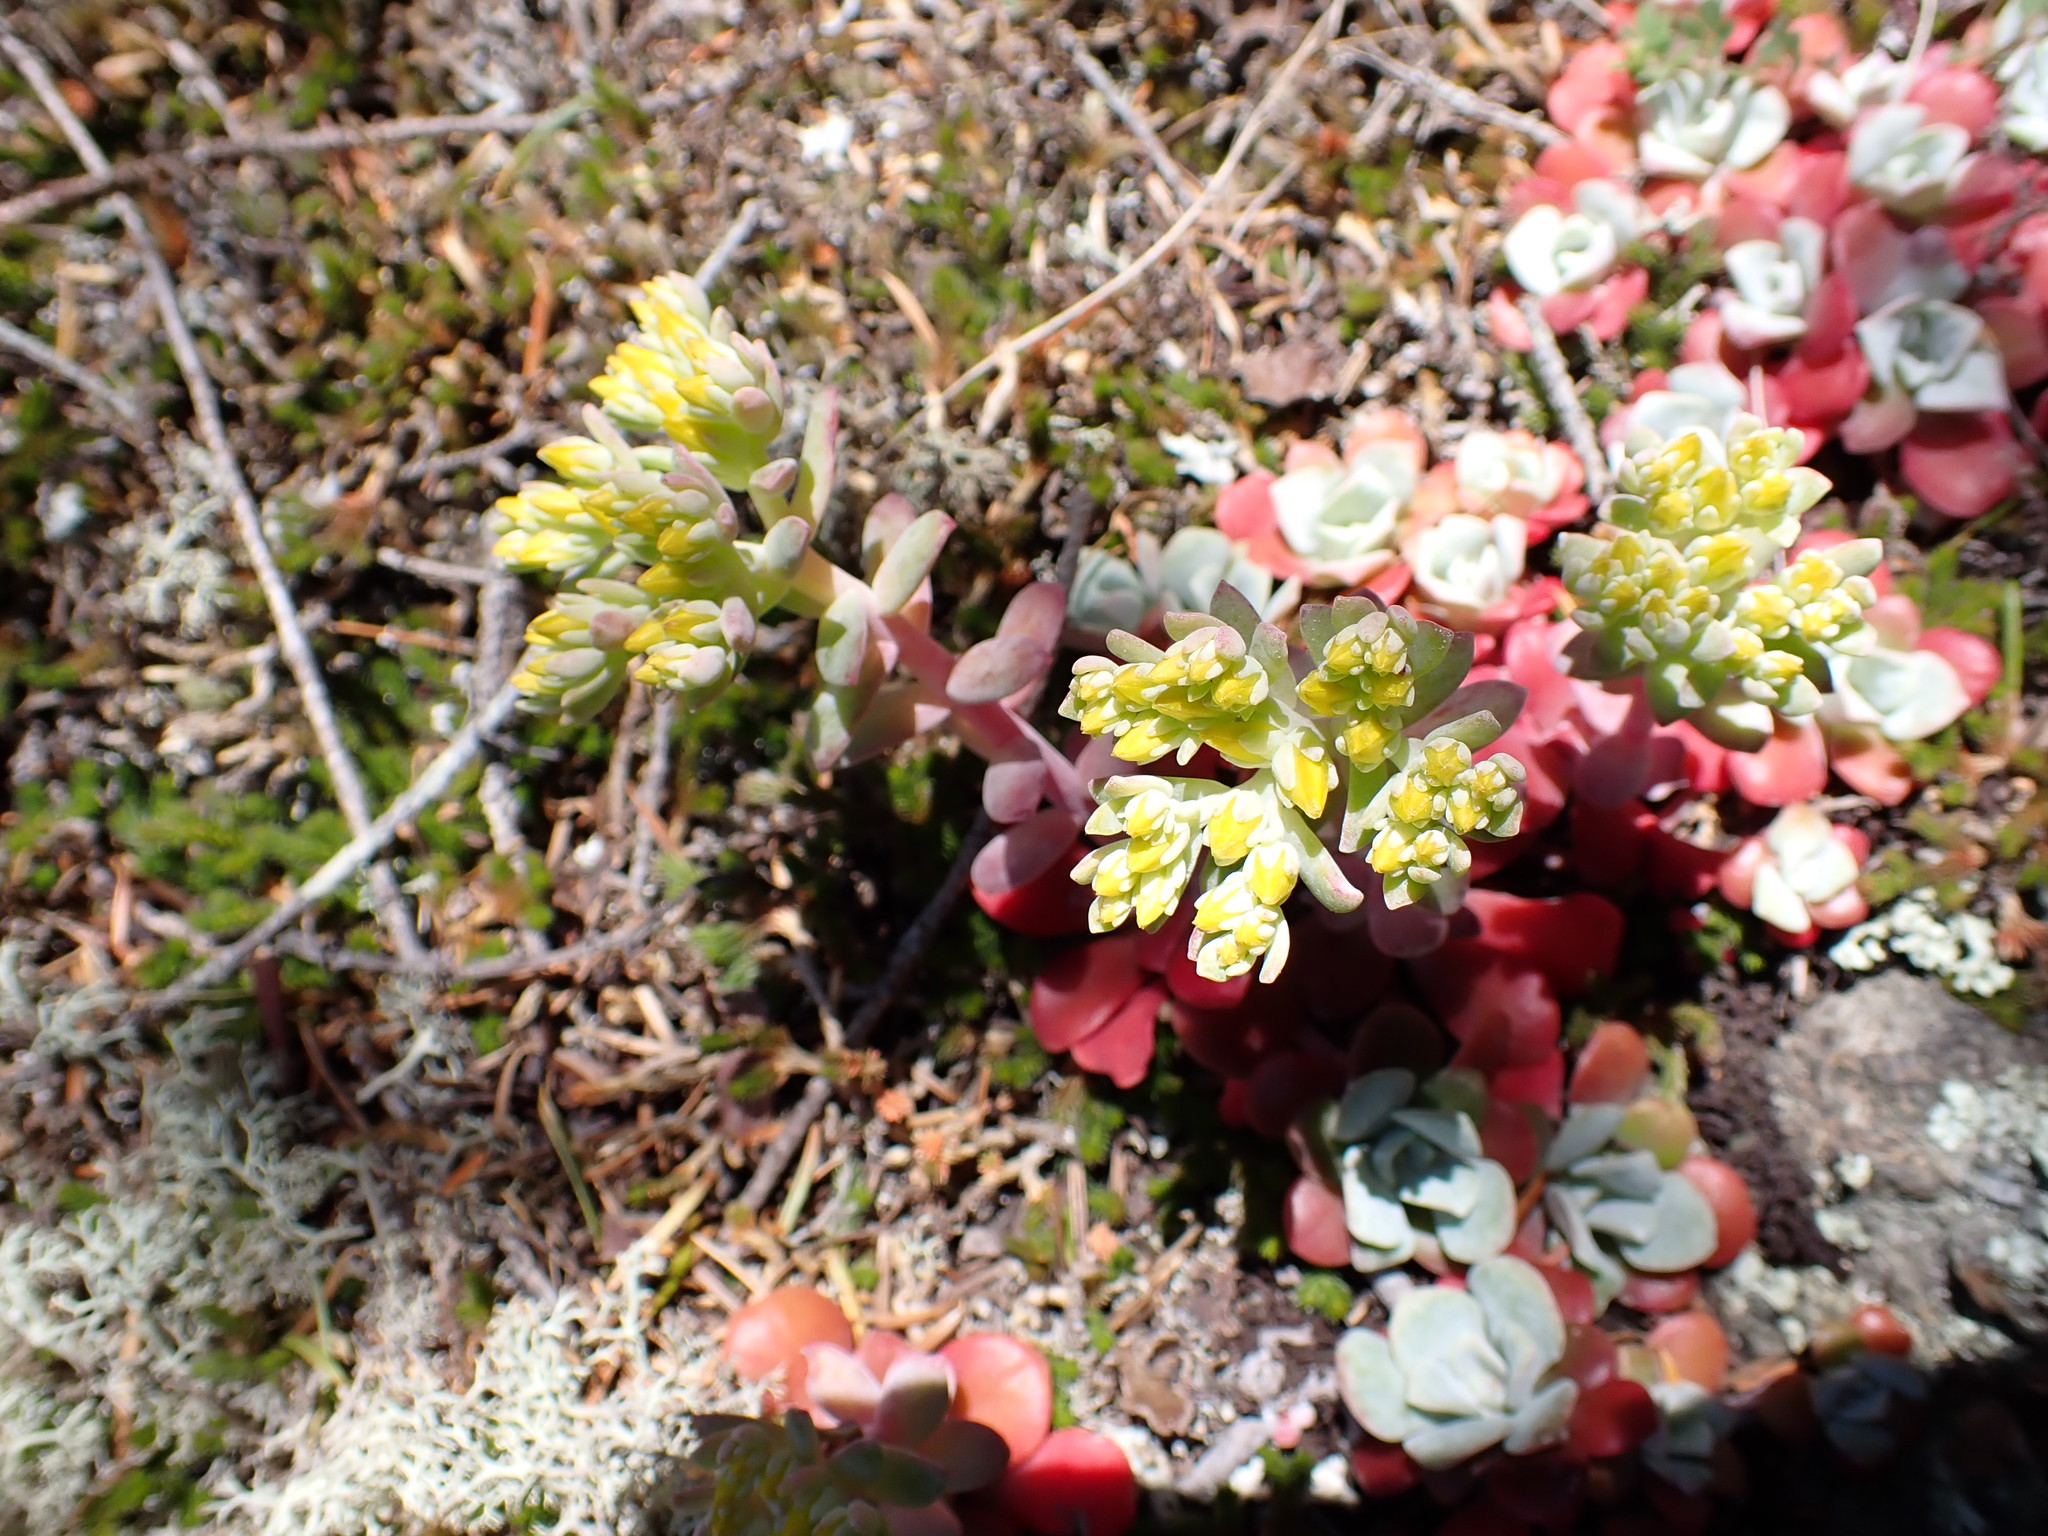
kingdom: Plantae
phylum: Tracheophyta
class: Magnoliopsida
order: Saxifragales
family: Crassulaceae
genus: Sedum
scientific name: Sedum spathulifolium
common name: Colorado stonecrop
